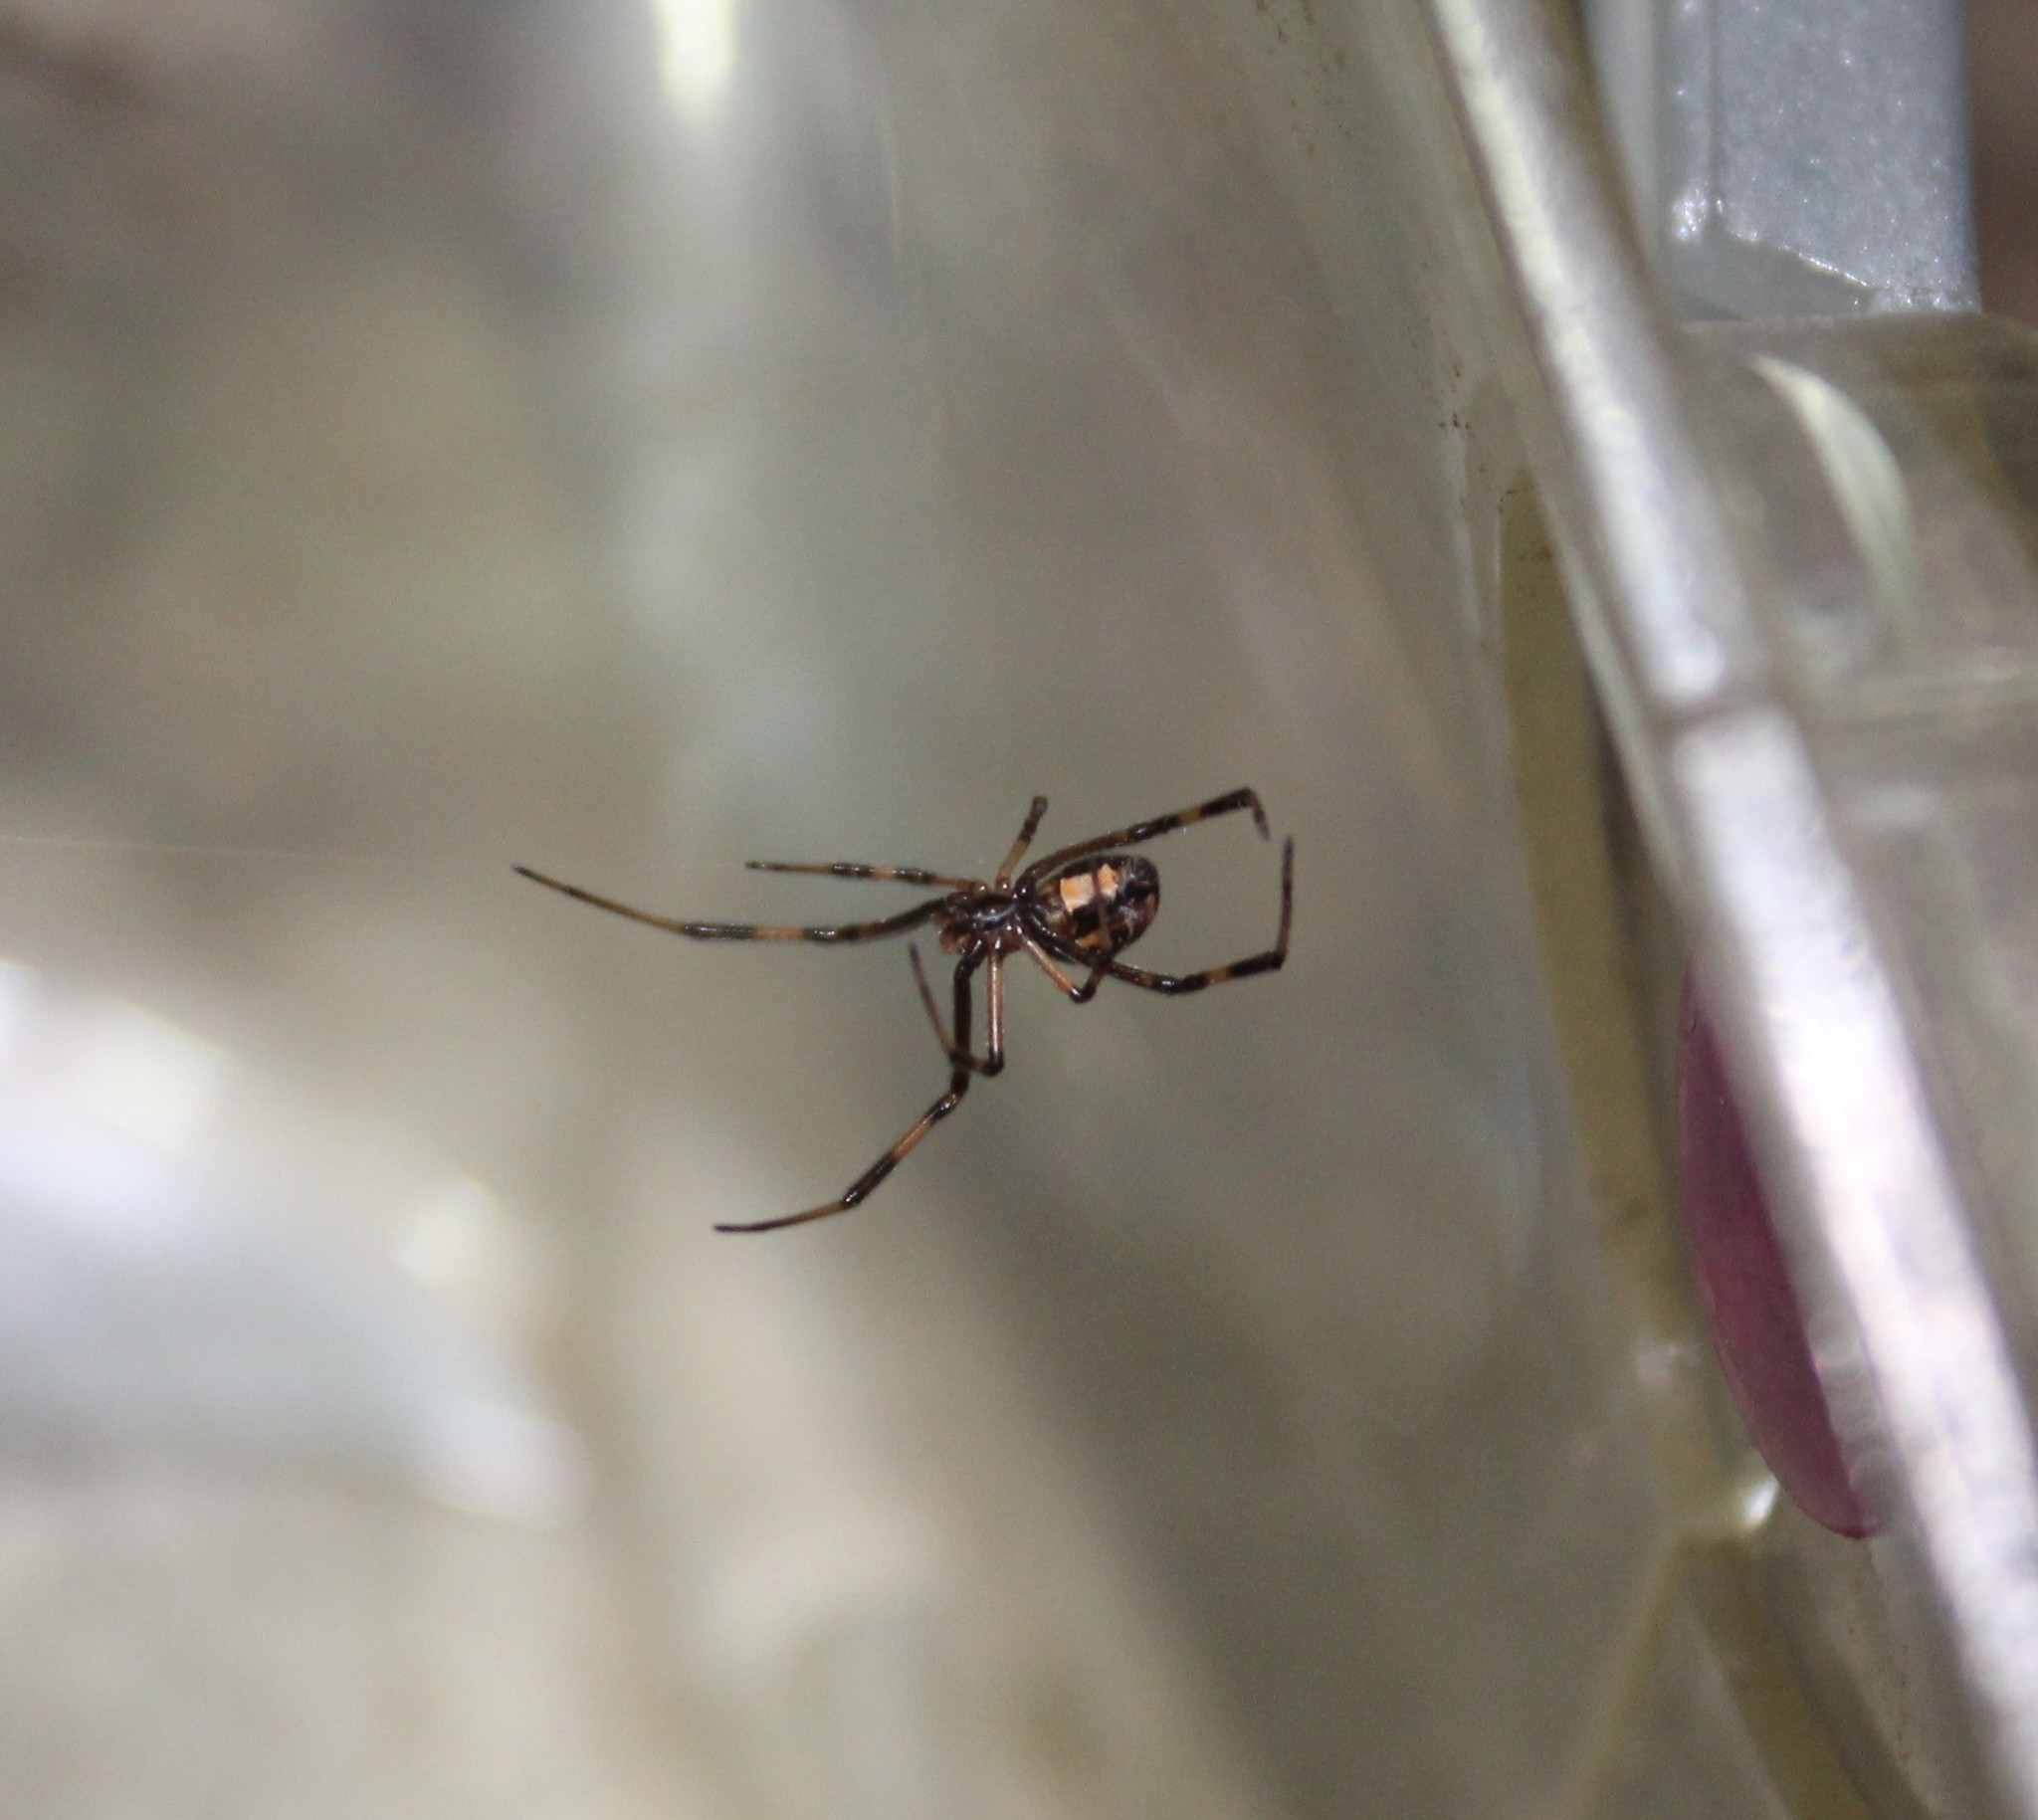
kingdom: Animalia
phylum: Arthropoda
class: Arachnida
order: Araneae
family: Theridiidae
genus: Latrodectus
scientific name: Latrodectus geometricus
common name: Brown widow spider
